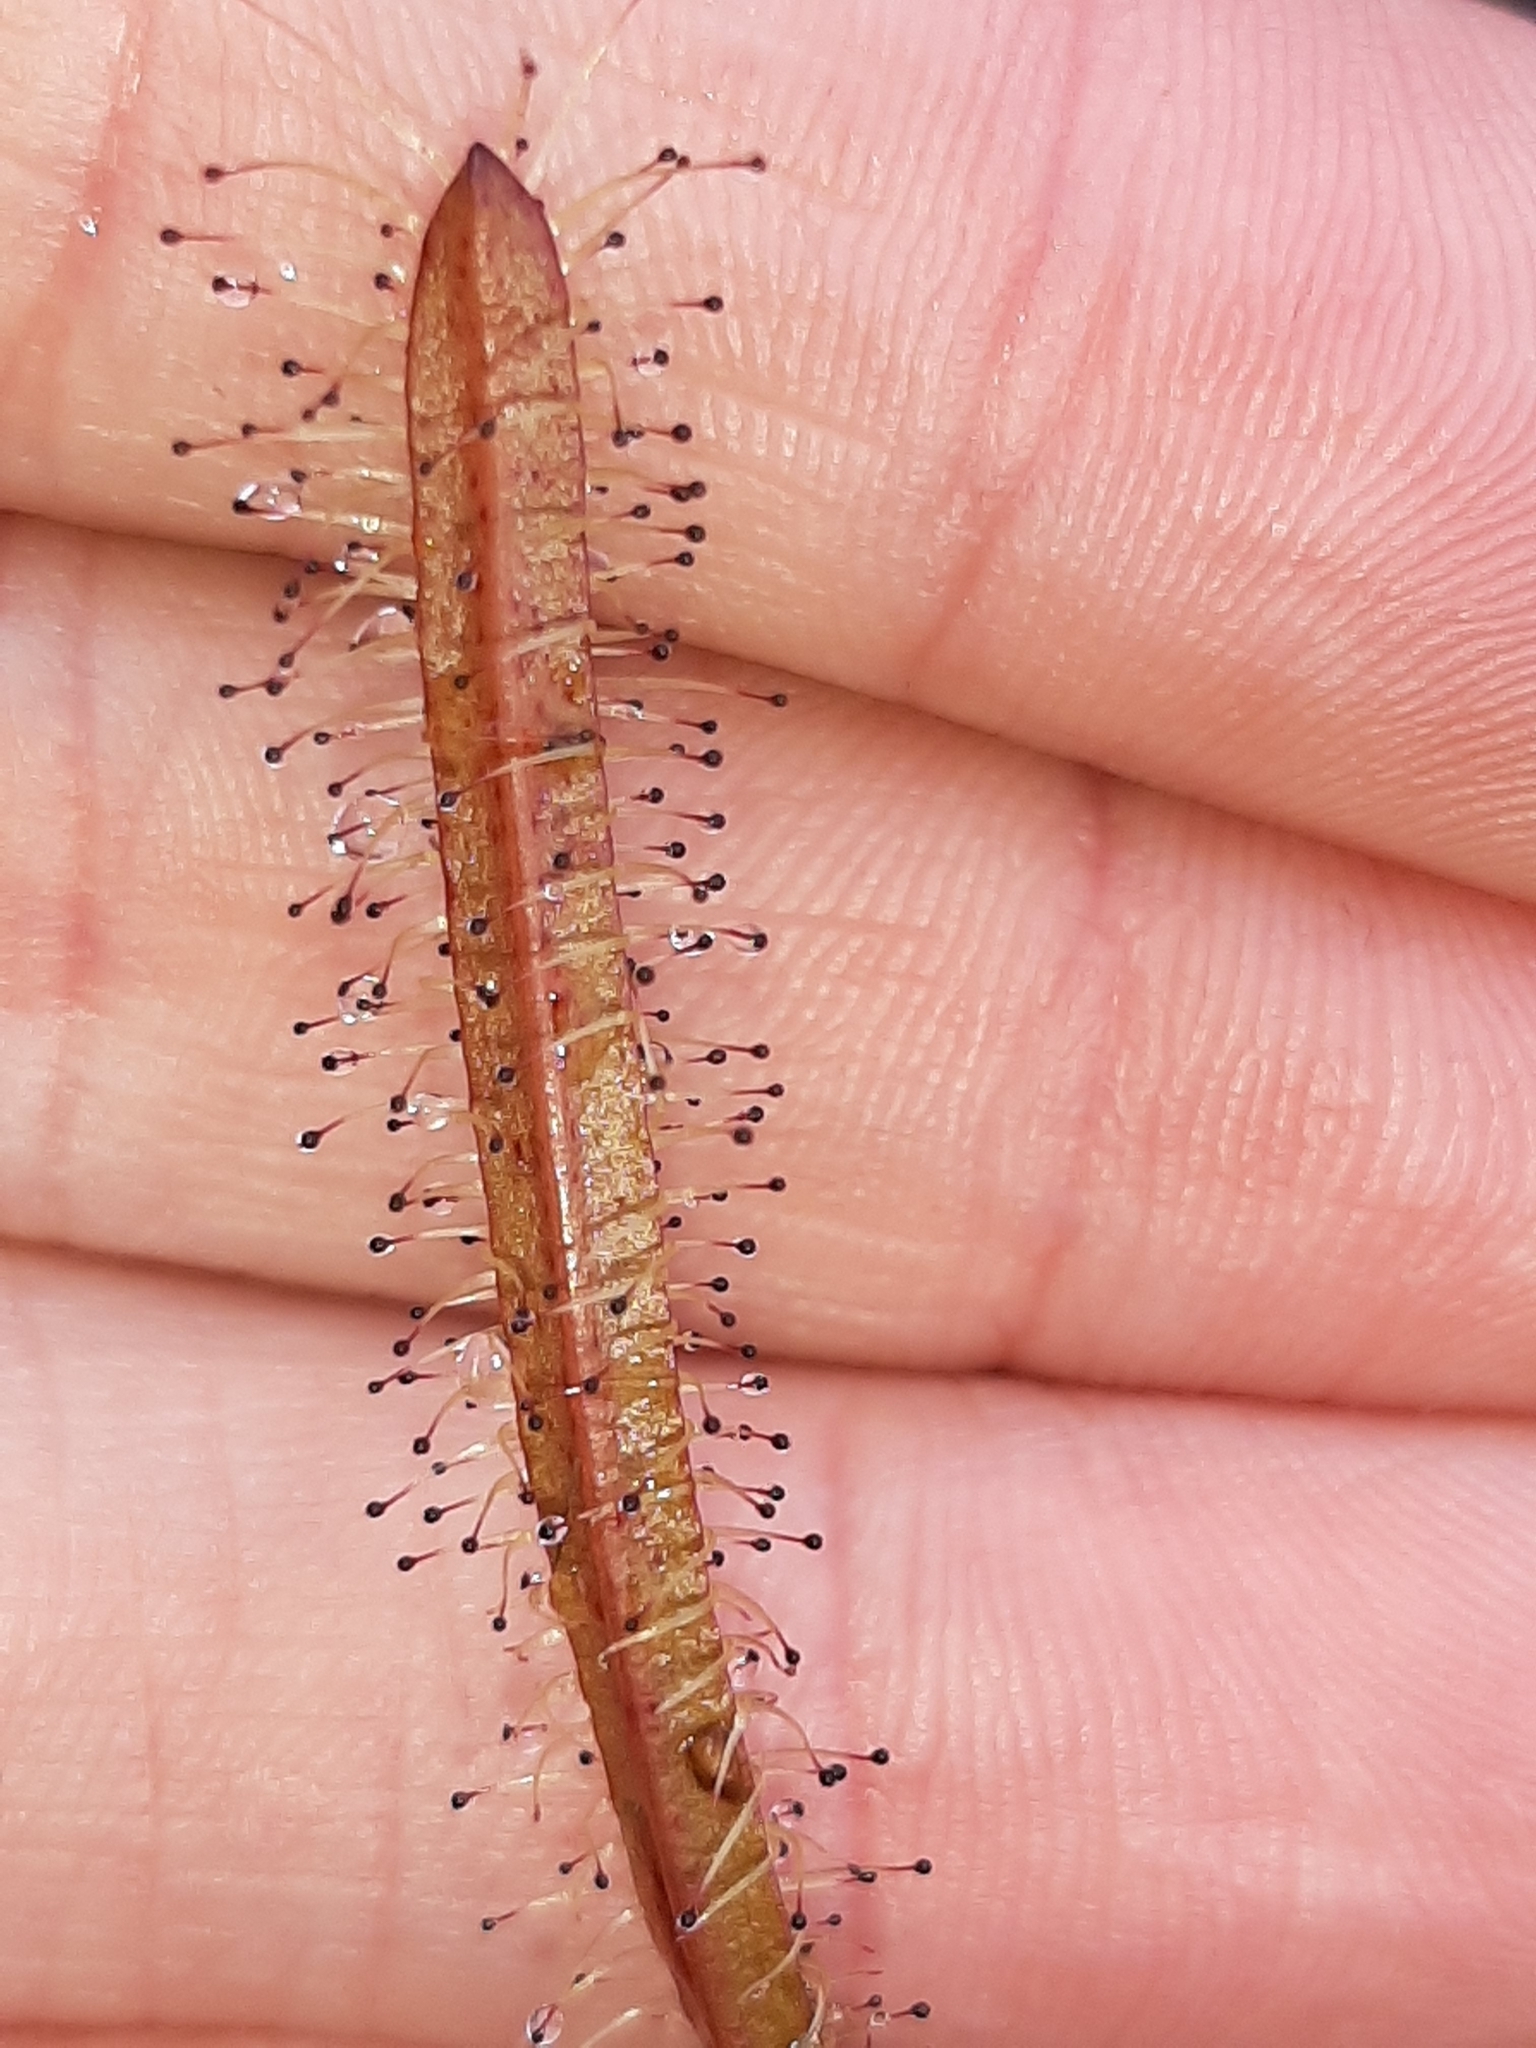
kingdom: Plantae
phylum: Tracheophyta
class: Magnoliopsida
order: Caryophyllales
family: Droseraceae
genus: Drosera
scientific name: Drosera arcturi
